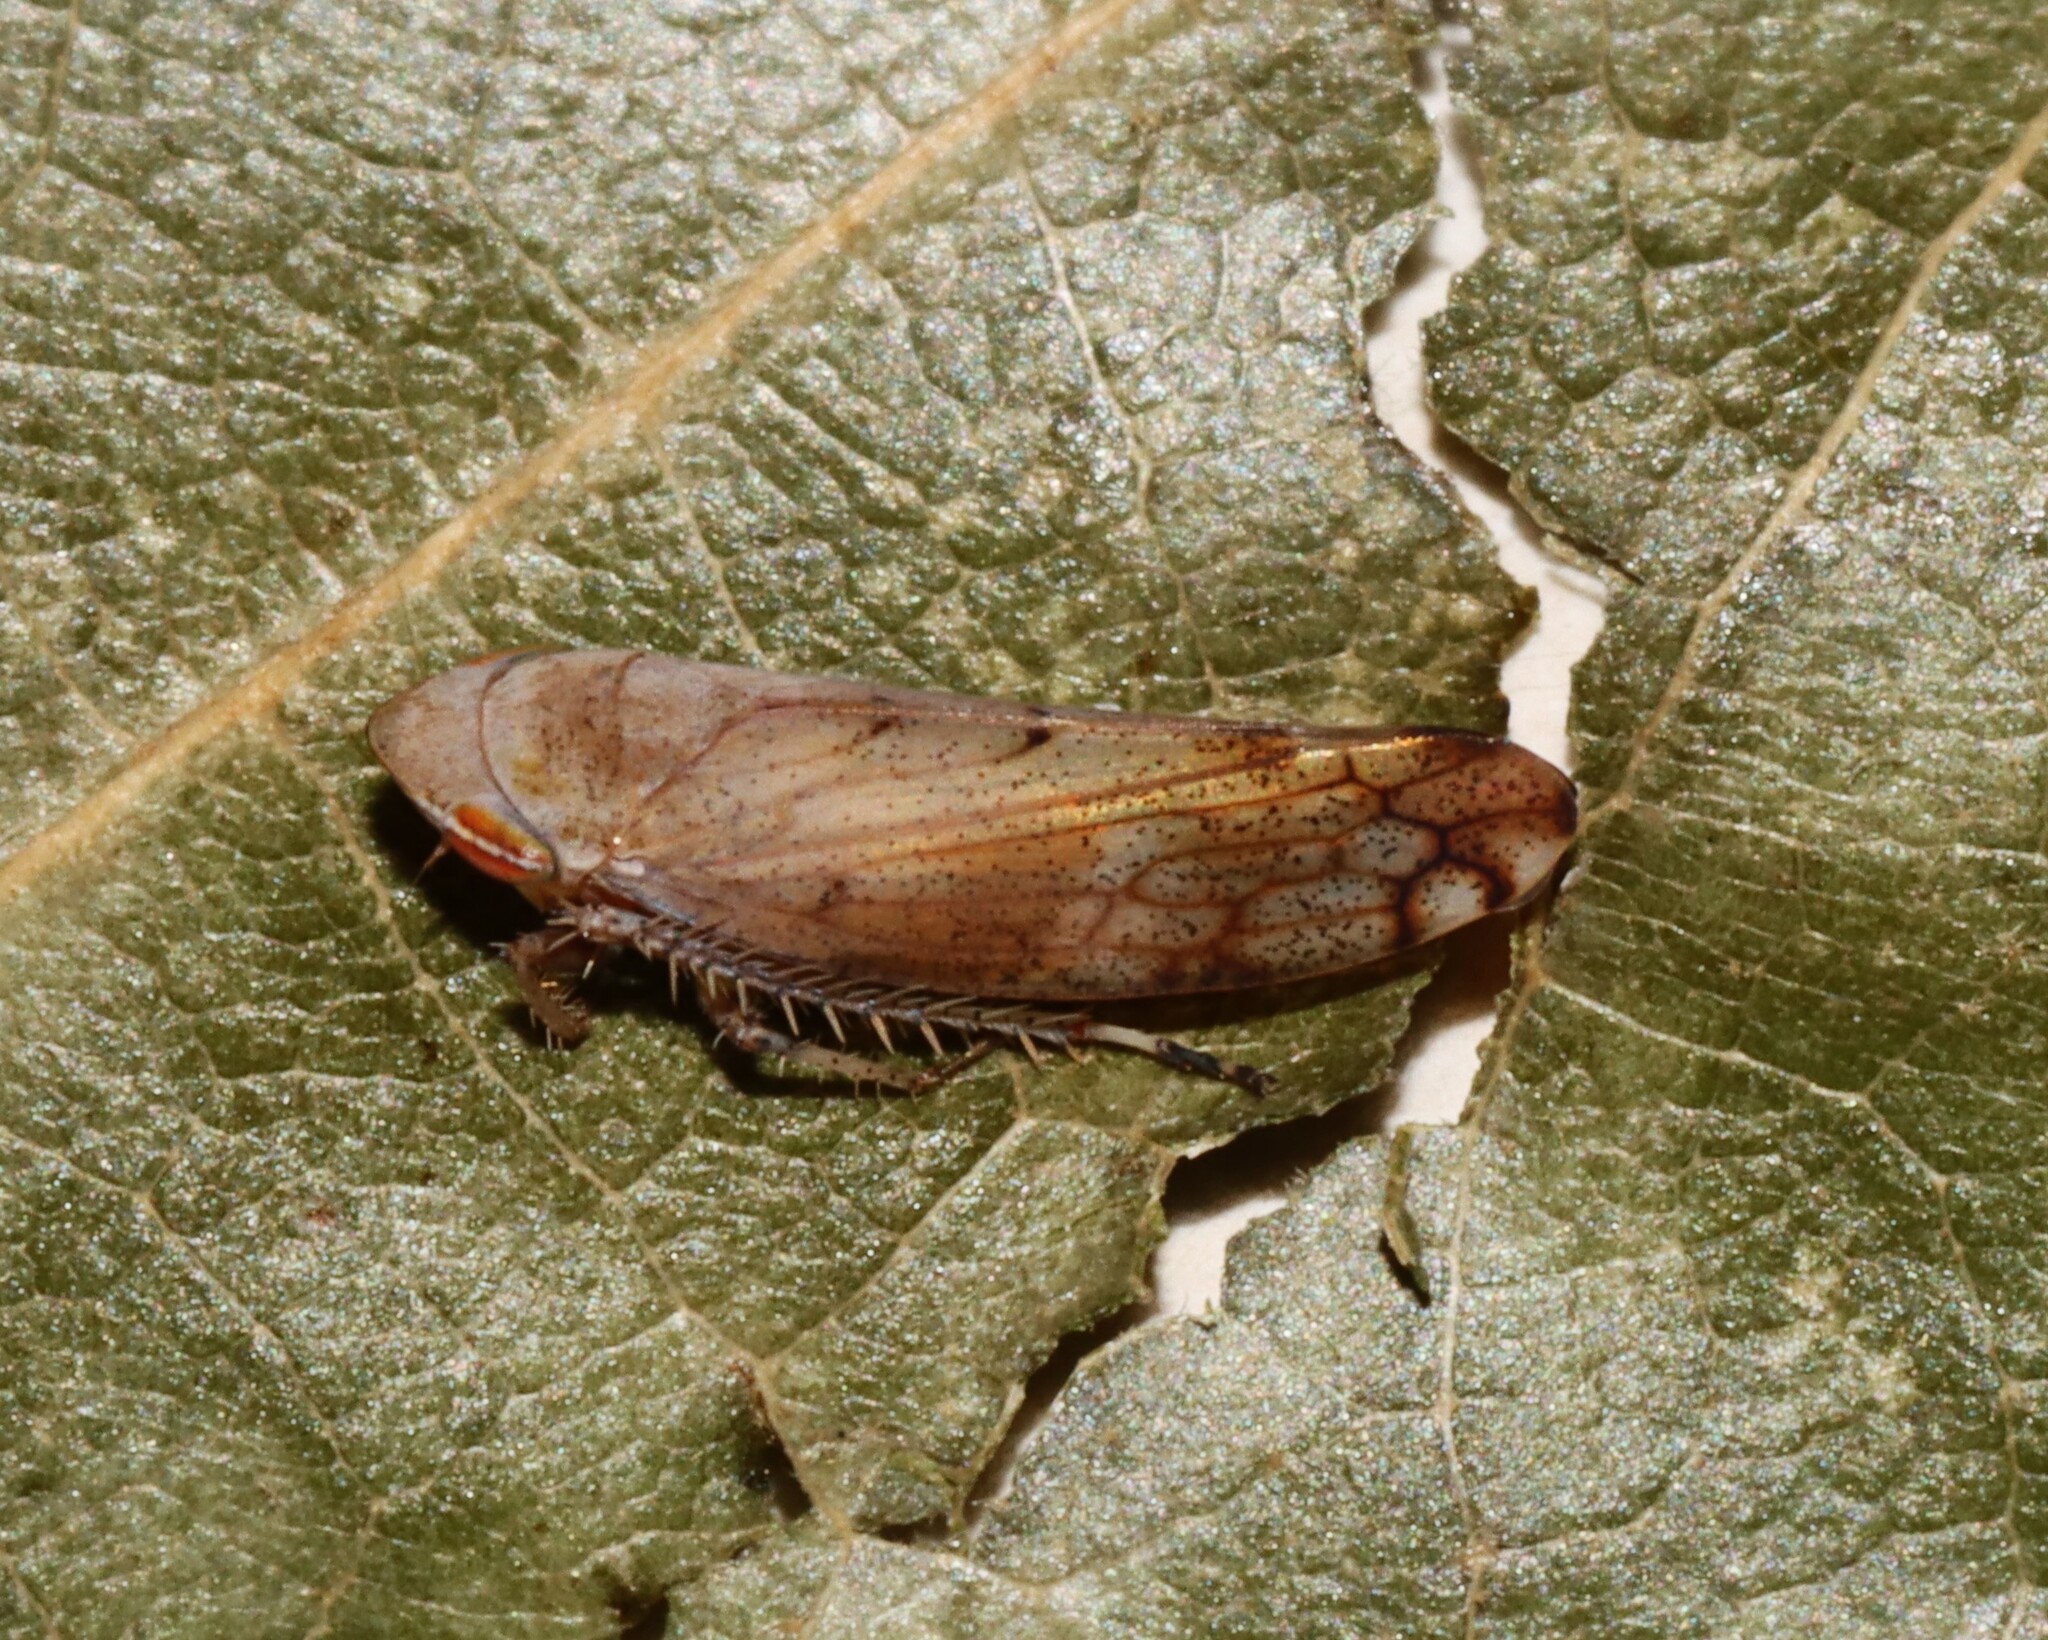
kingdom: Animalia
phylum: Arthropoda
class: Insecta
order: Hemiptera
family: Cicadellidae
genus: Fieberiella
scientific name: Fieberiella florii
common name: Flor’s leafhopper
